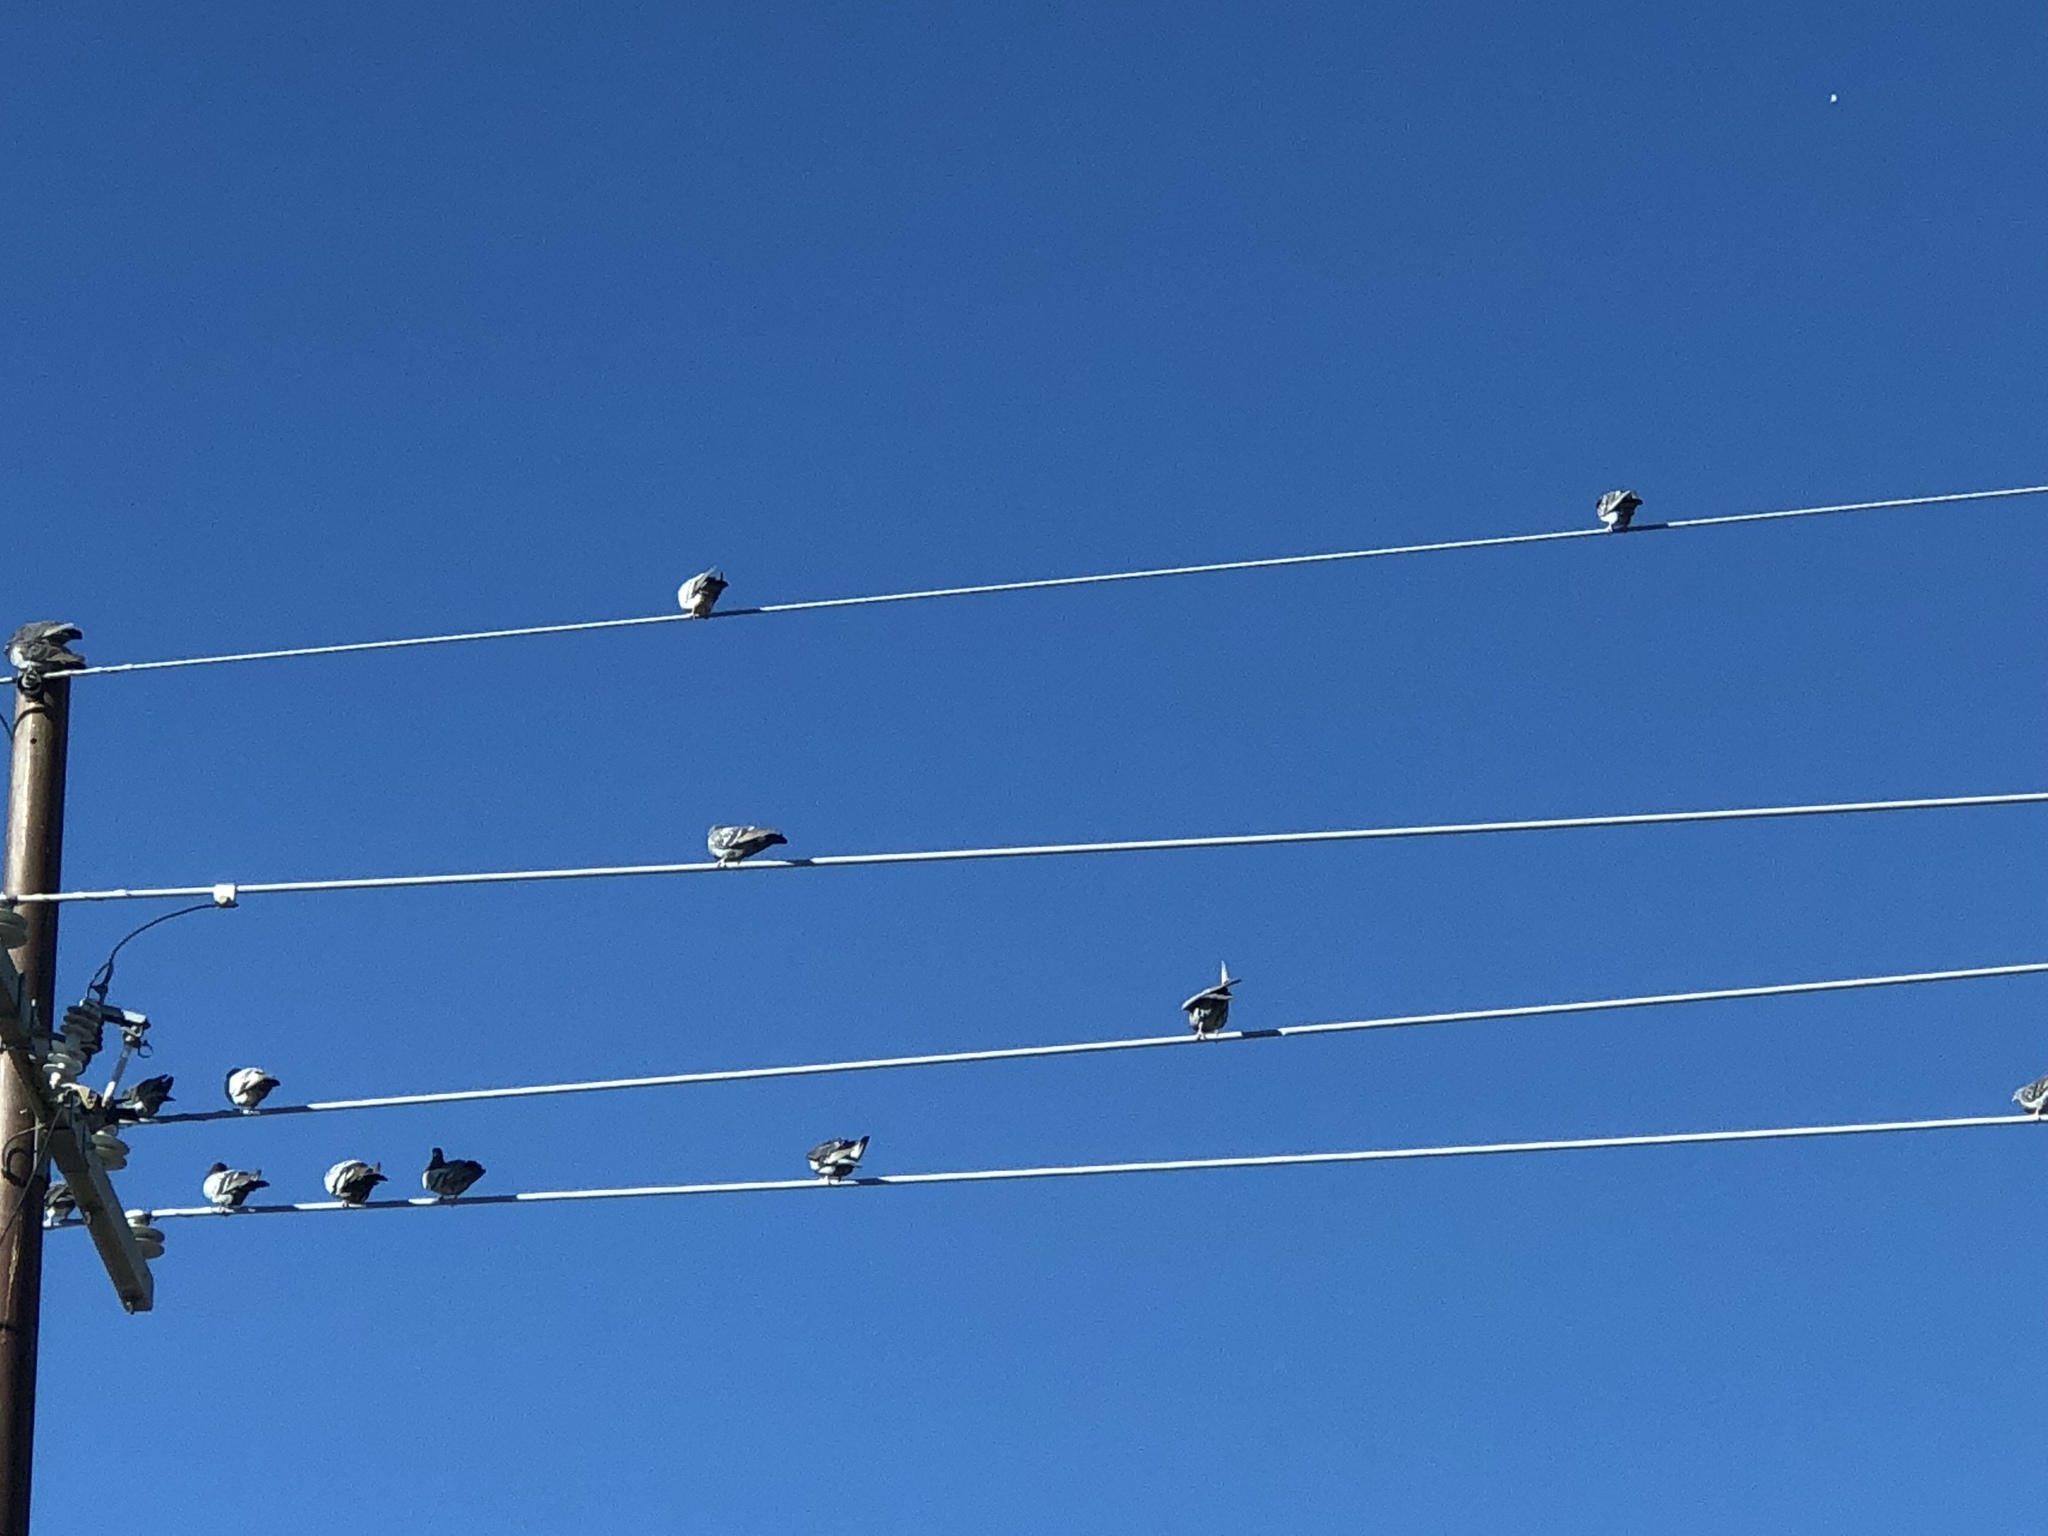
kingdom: Animalia
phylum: Chordata
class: Aves
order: Columbiformes
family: Columbidae
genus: Columba
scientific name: Columba livia
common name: Rock pigeon
